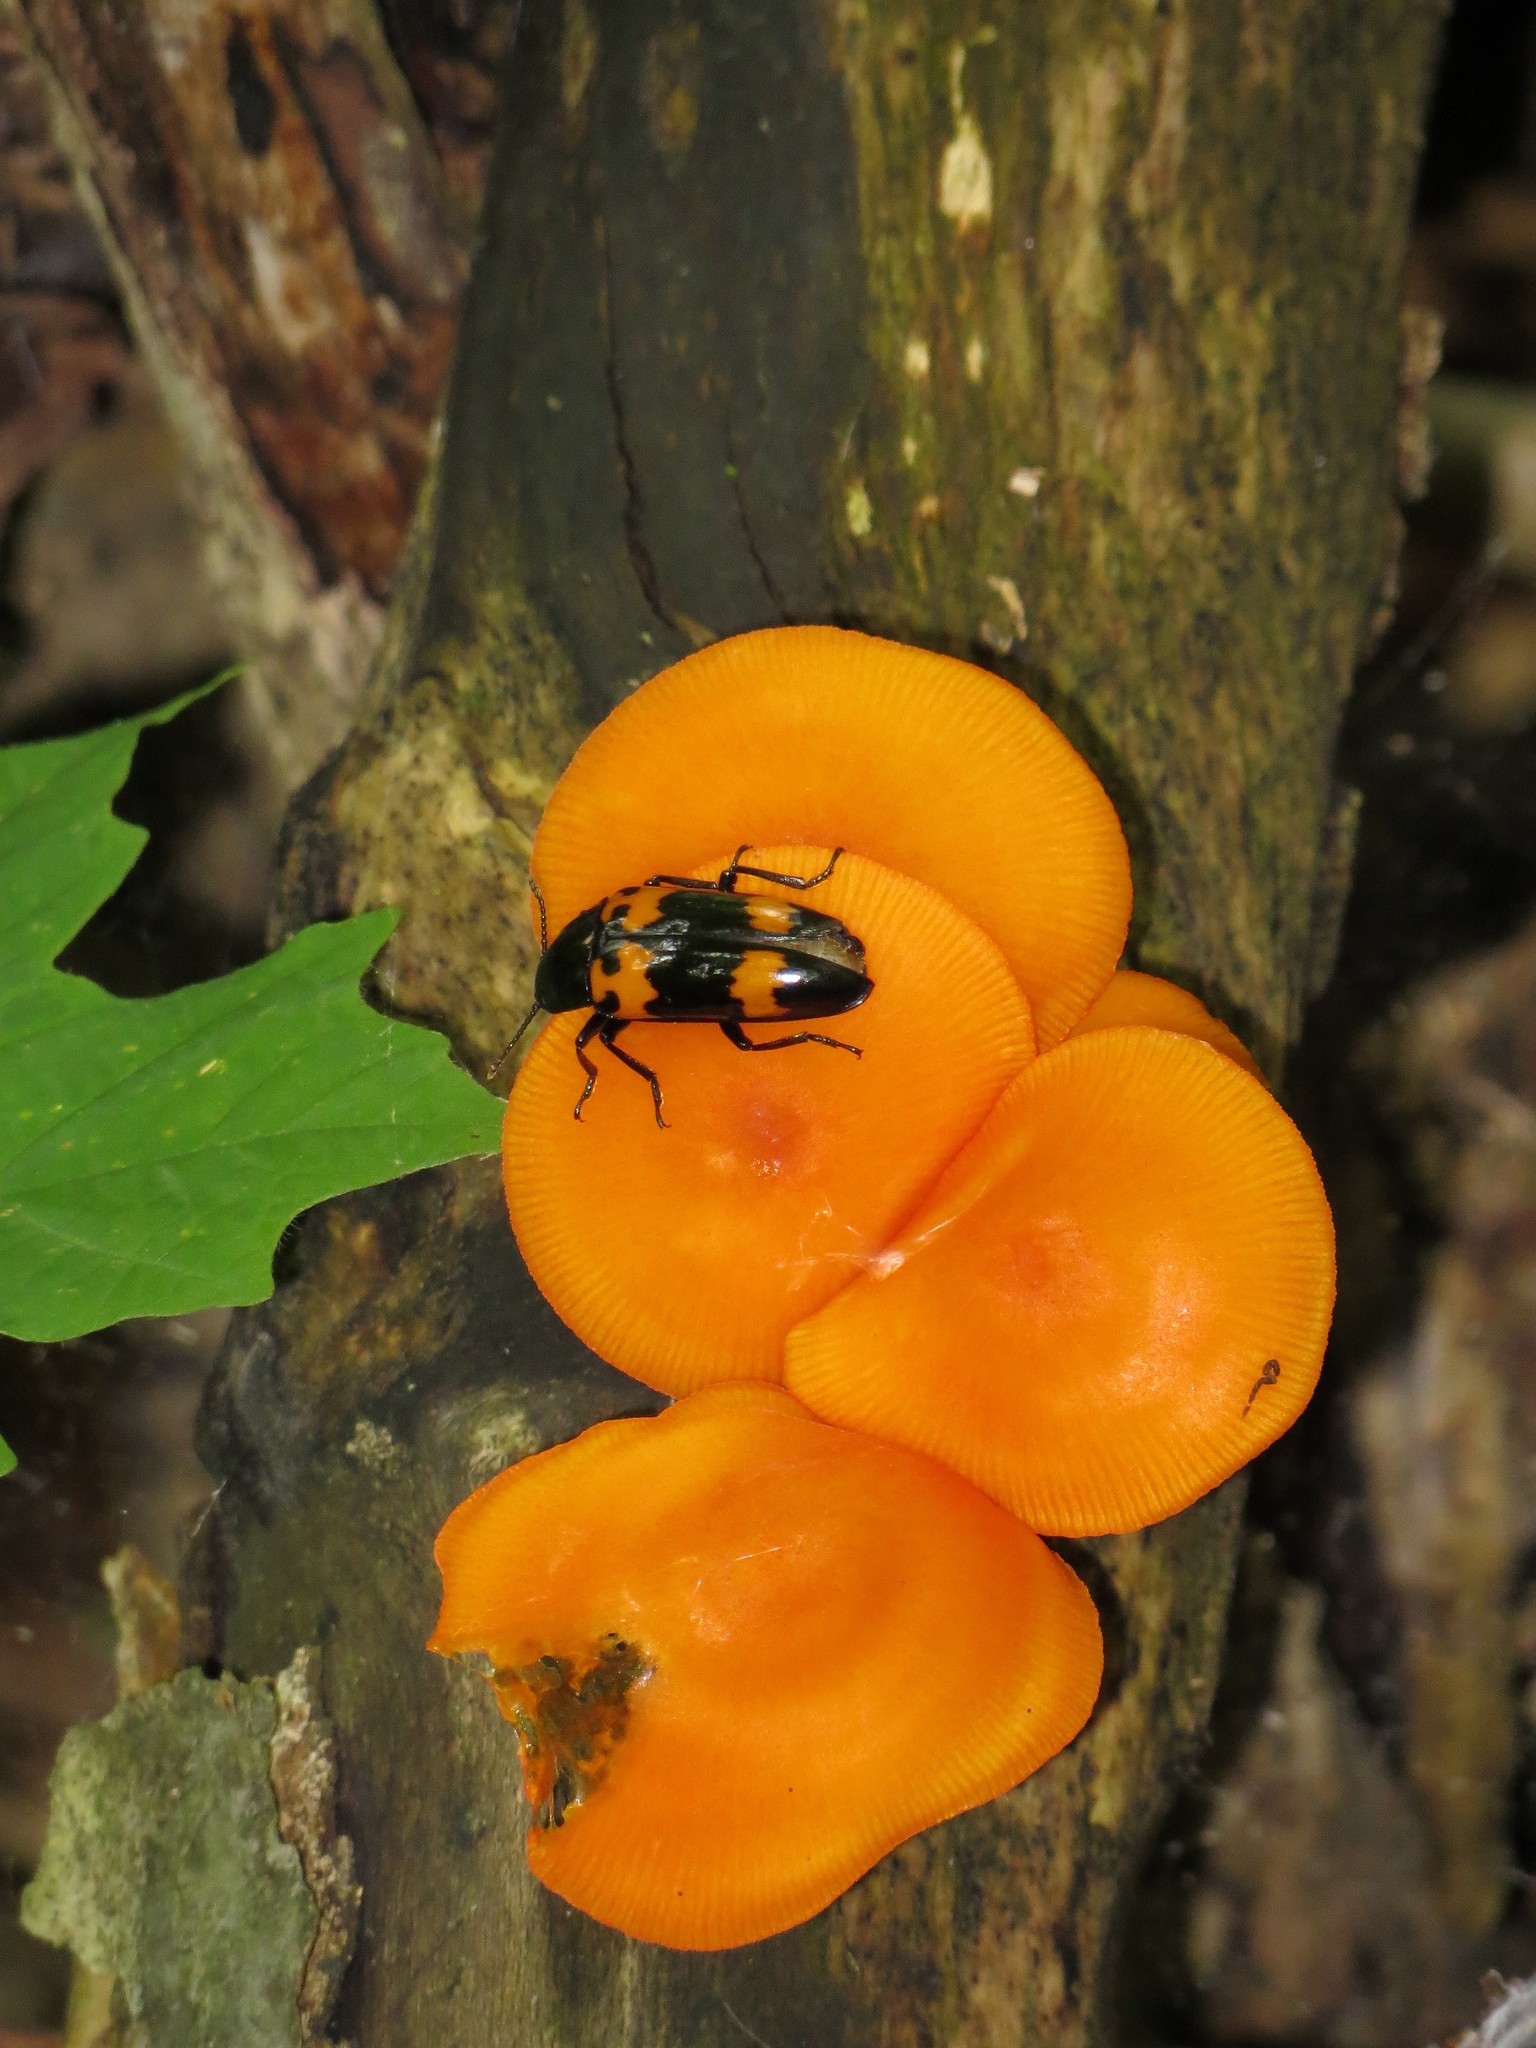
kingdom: Animalia
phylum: Arthropoda
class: Insecta
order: Coleoptera
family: Erotylidae
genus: Megalodacne
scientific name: Megalodacne heros
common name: Pleasing fungus beetle
